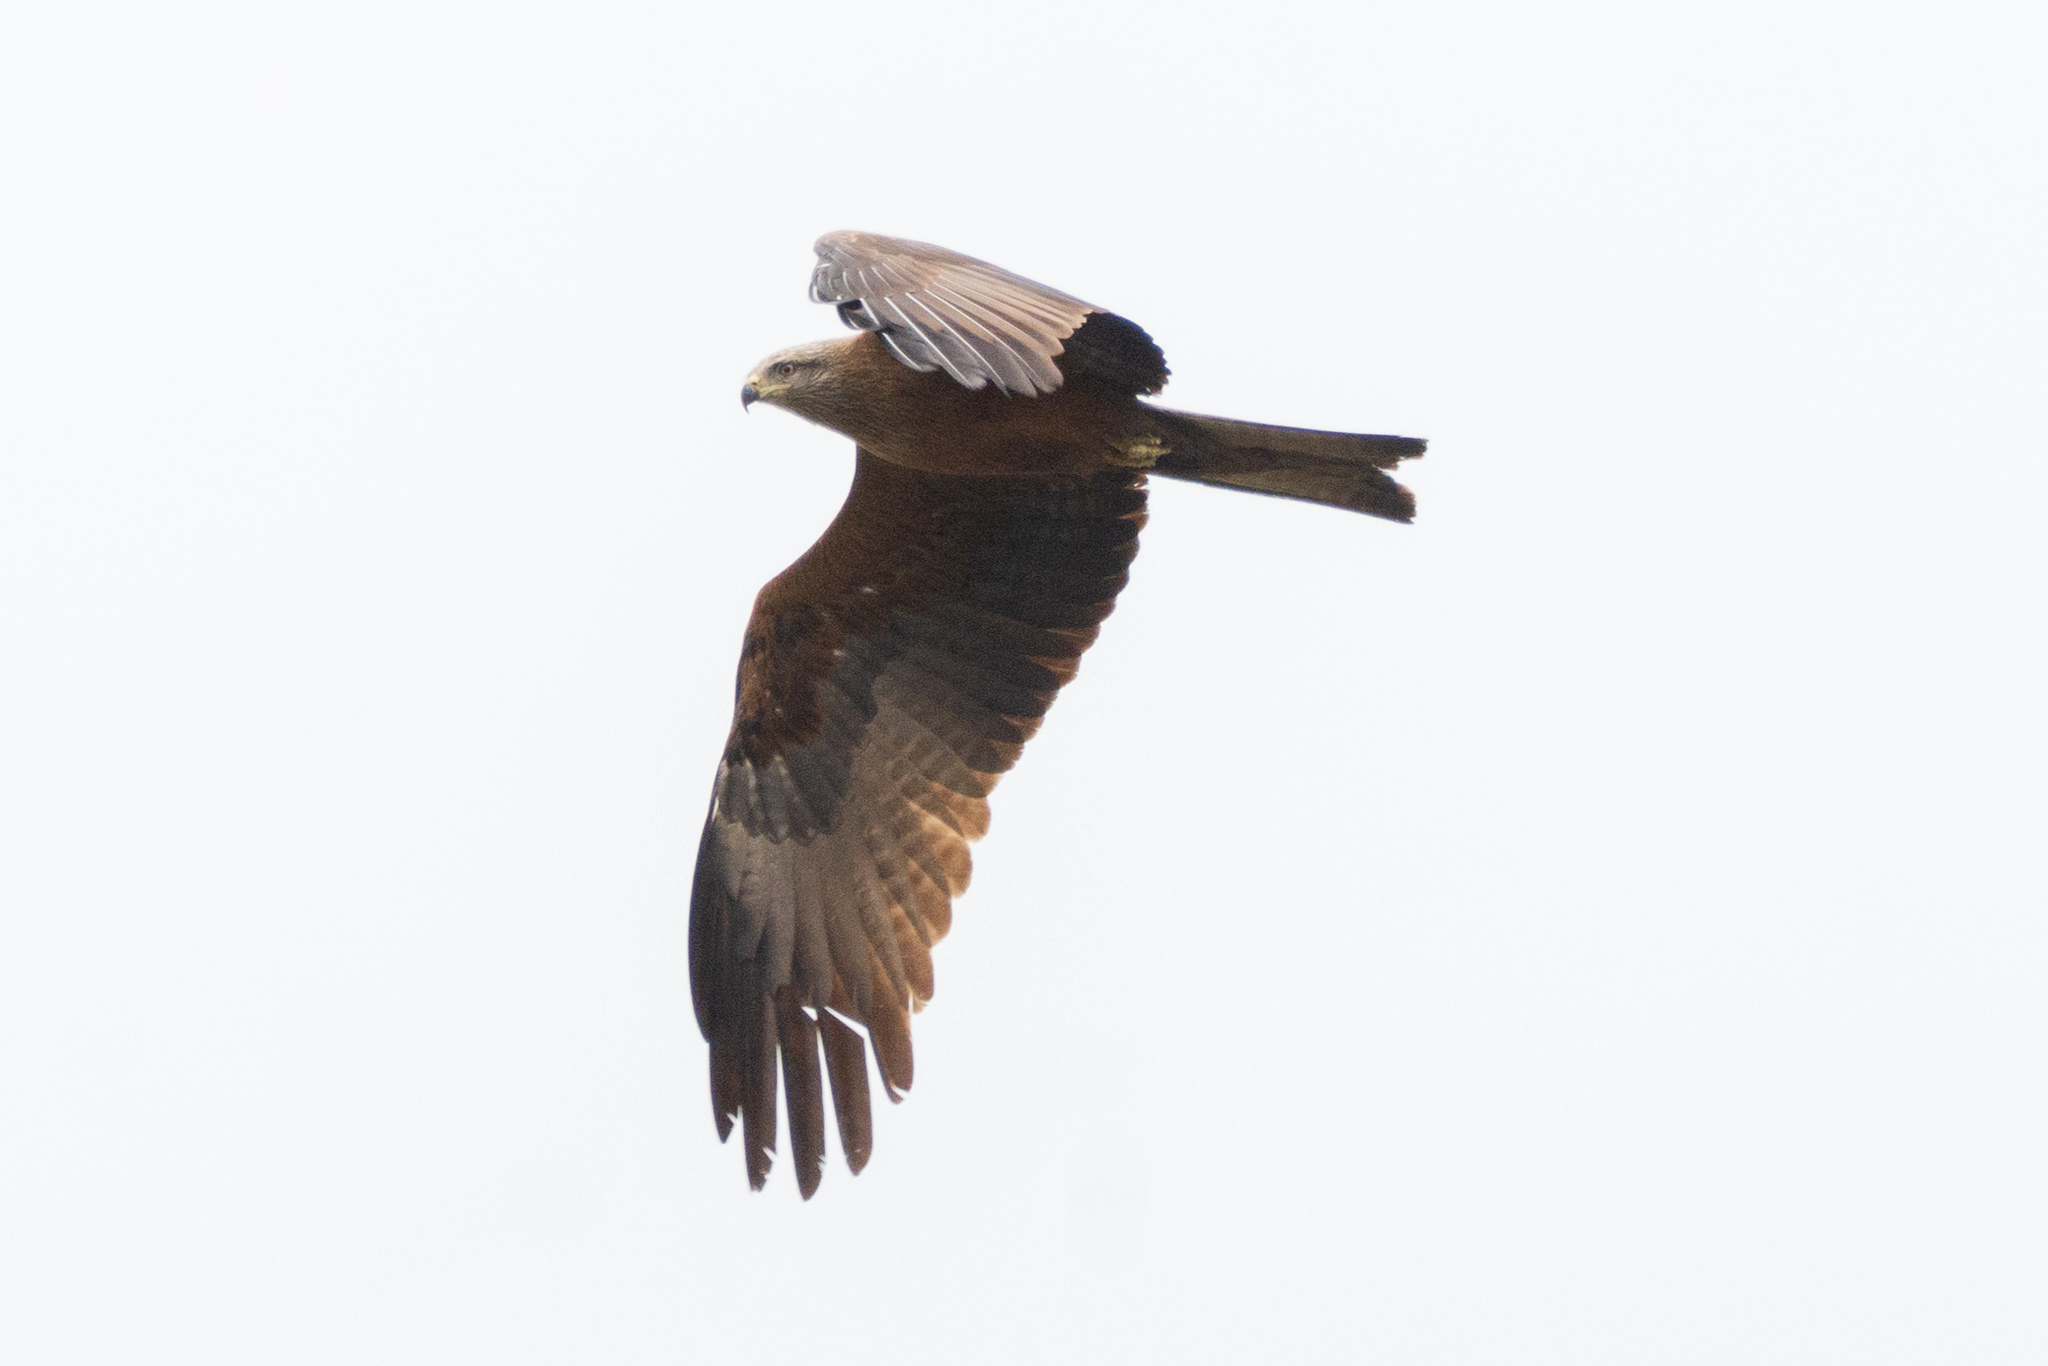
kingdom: Animalia
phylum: Chordata
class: Aves
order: Accipitriformes
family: Accipitridae
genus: Milvus
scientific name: Milvus migrans
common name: Black kite
